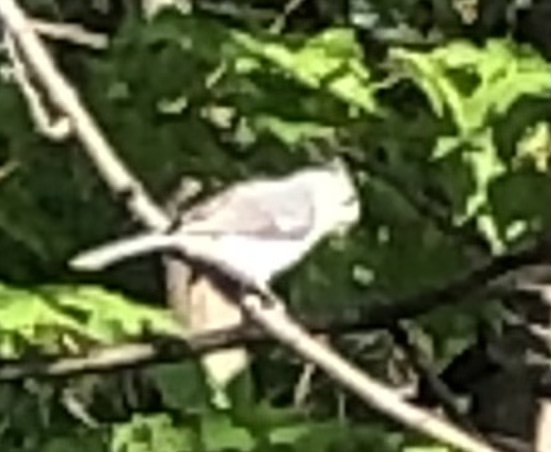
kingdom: Animalia
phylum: Chordata
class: Aves
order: Passeriformes
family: Paridae
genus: Baeolophus
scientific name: Baeolophus bicolor
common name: Tufted titmouse
